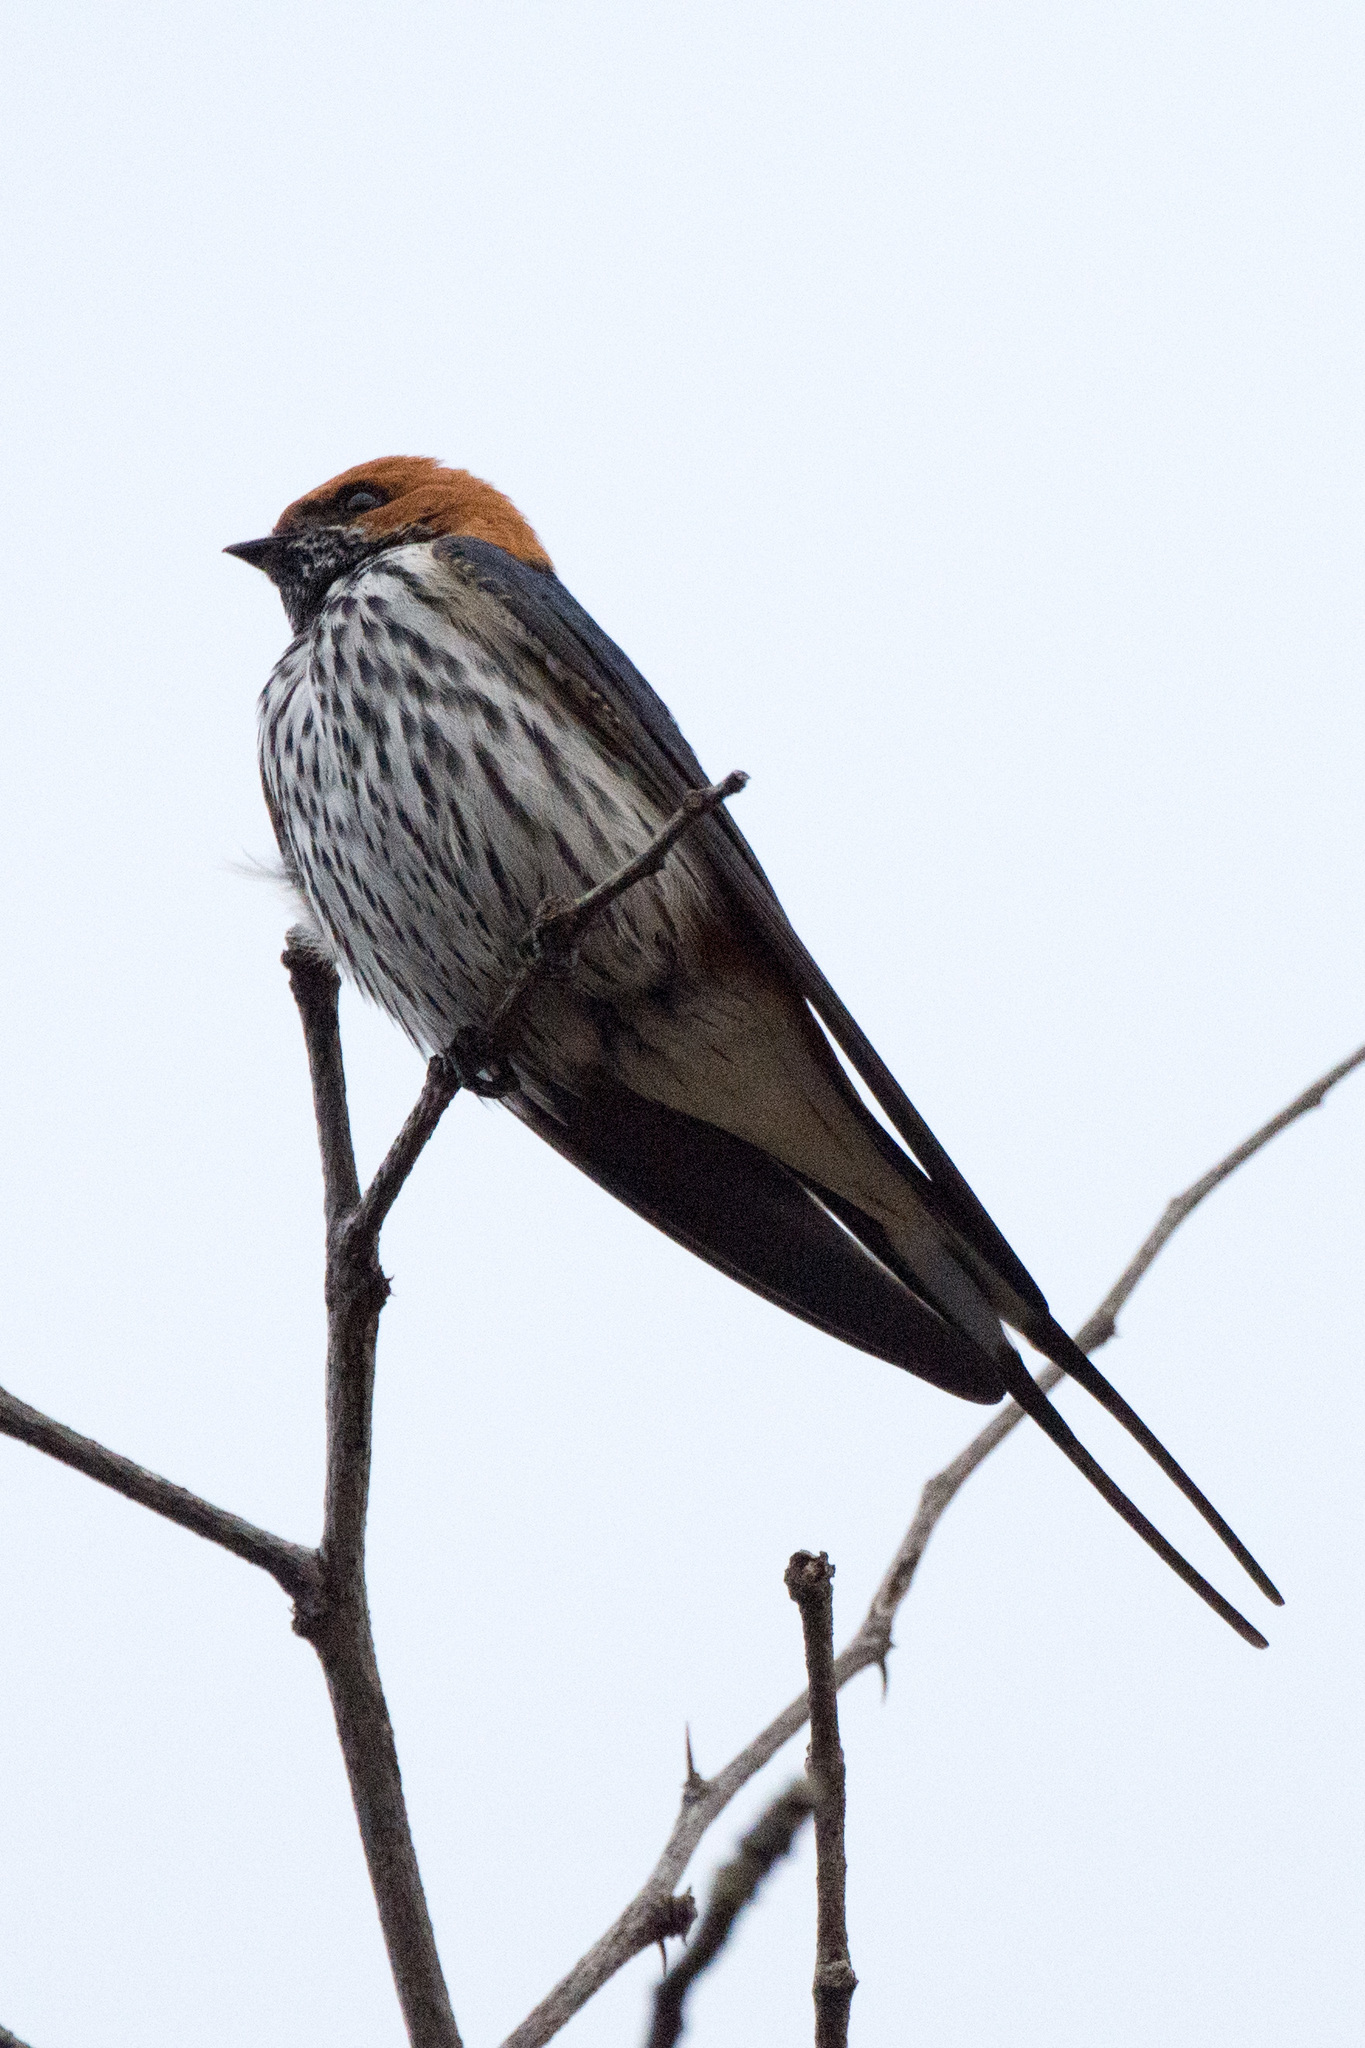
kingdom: Animalia
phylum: Chordata
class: Aves
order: Passeriformes
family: Hirundinidae
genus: Cecropis
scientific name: Cecropis abyssinica
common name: Lesser striped-swallow
